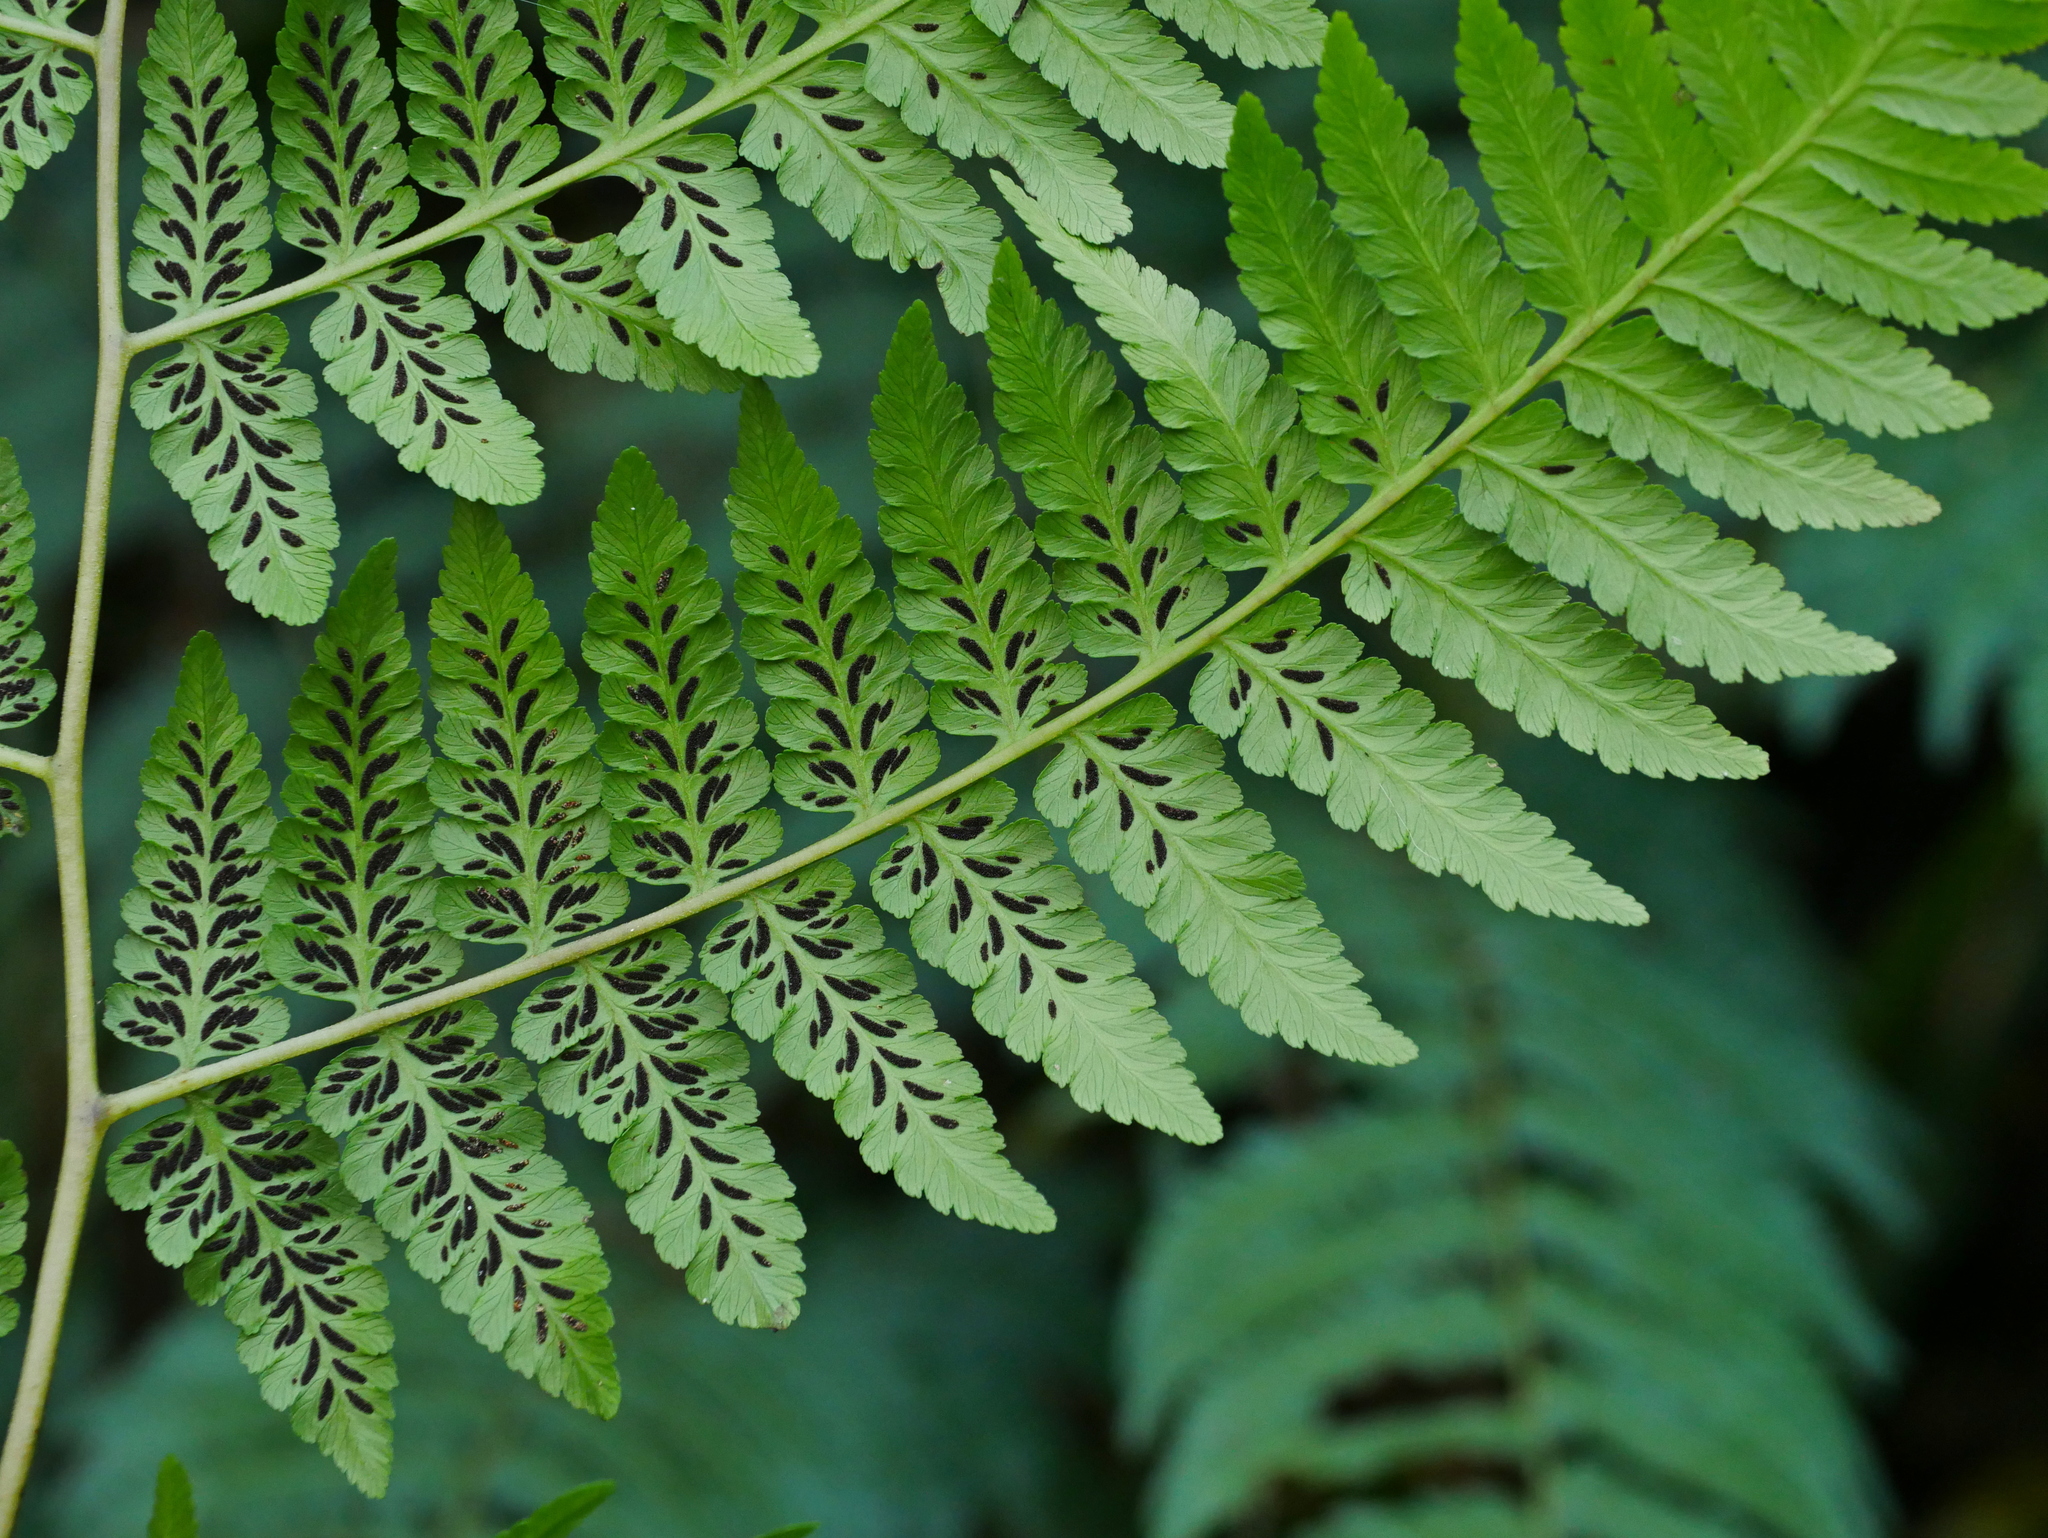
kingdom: Plantae
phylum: Tracheophyta
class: Polypodiopsida
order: Polypodiales
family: Athyriaceae
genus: Diplazium
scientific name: Diplazium pseudodoederleinii
